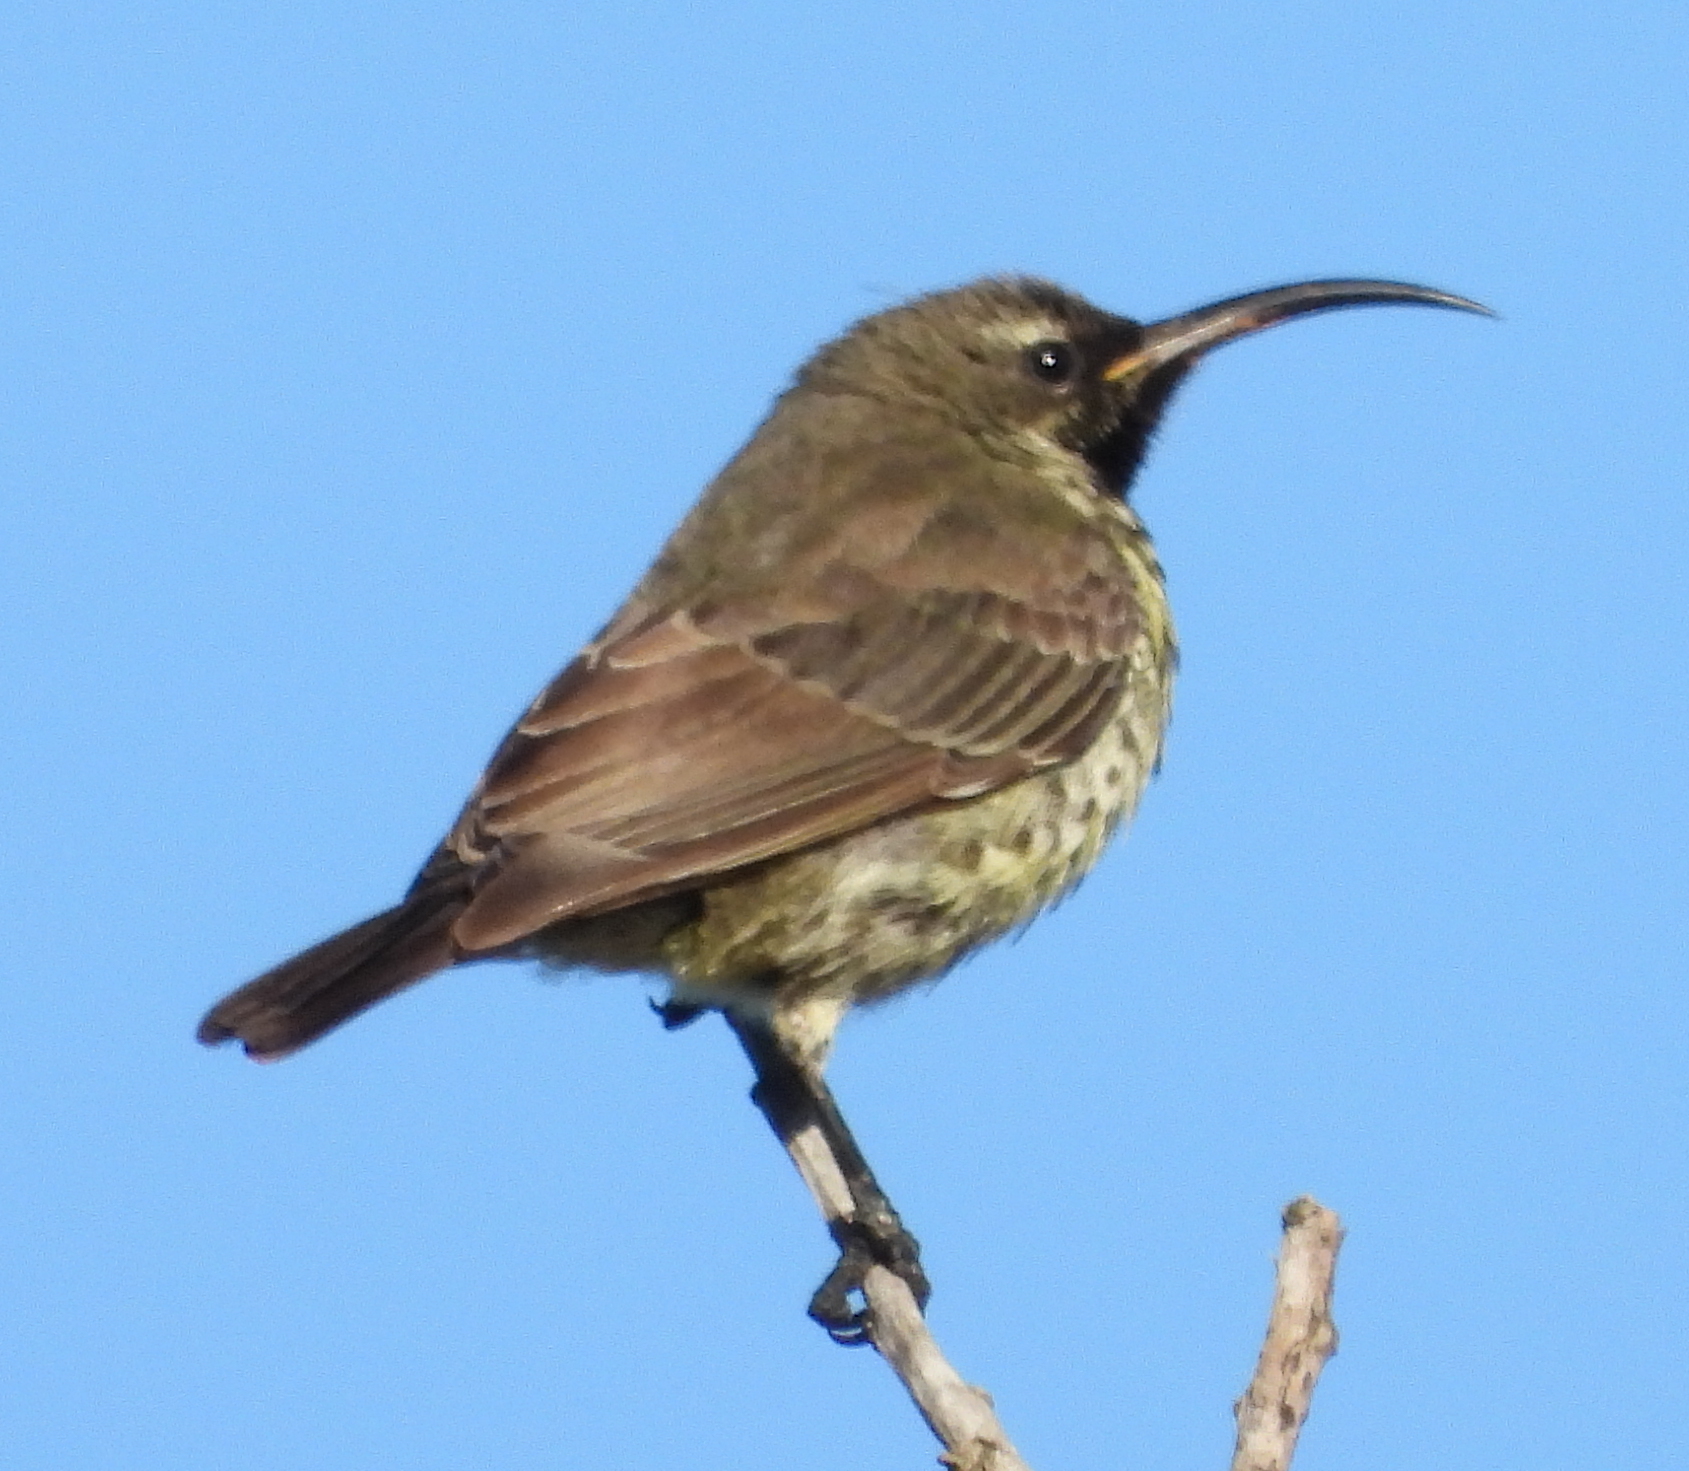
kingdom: Animalia
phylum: Chordata
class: Aves
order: Passeriformes
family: Nectariniidae
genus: Chalcomitra
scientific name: Chalcomitra amethystina
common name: Amethyst sunbird
